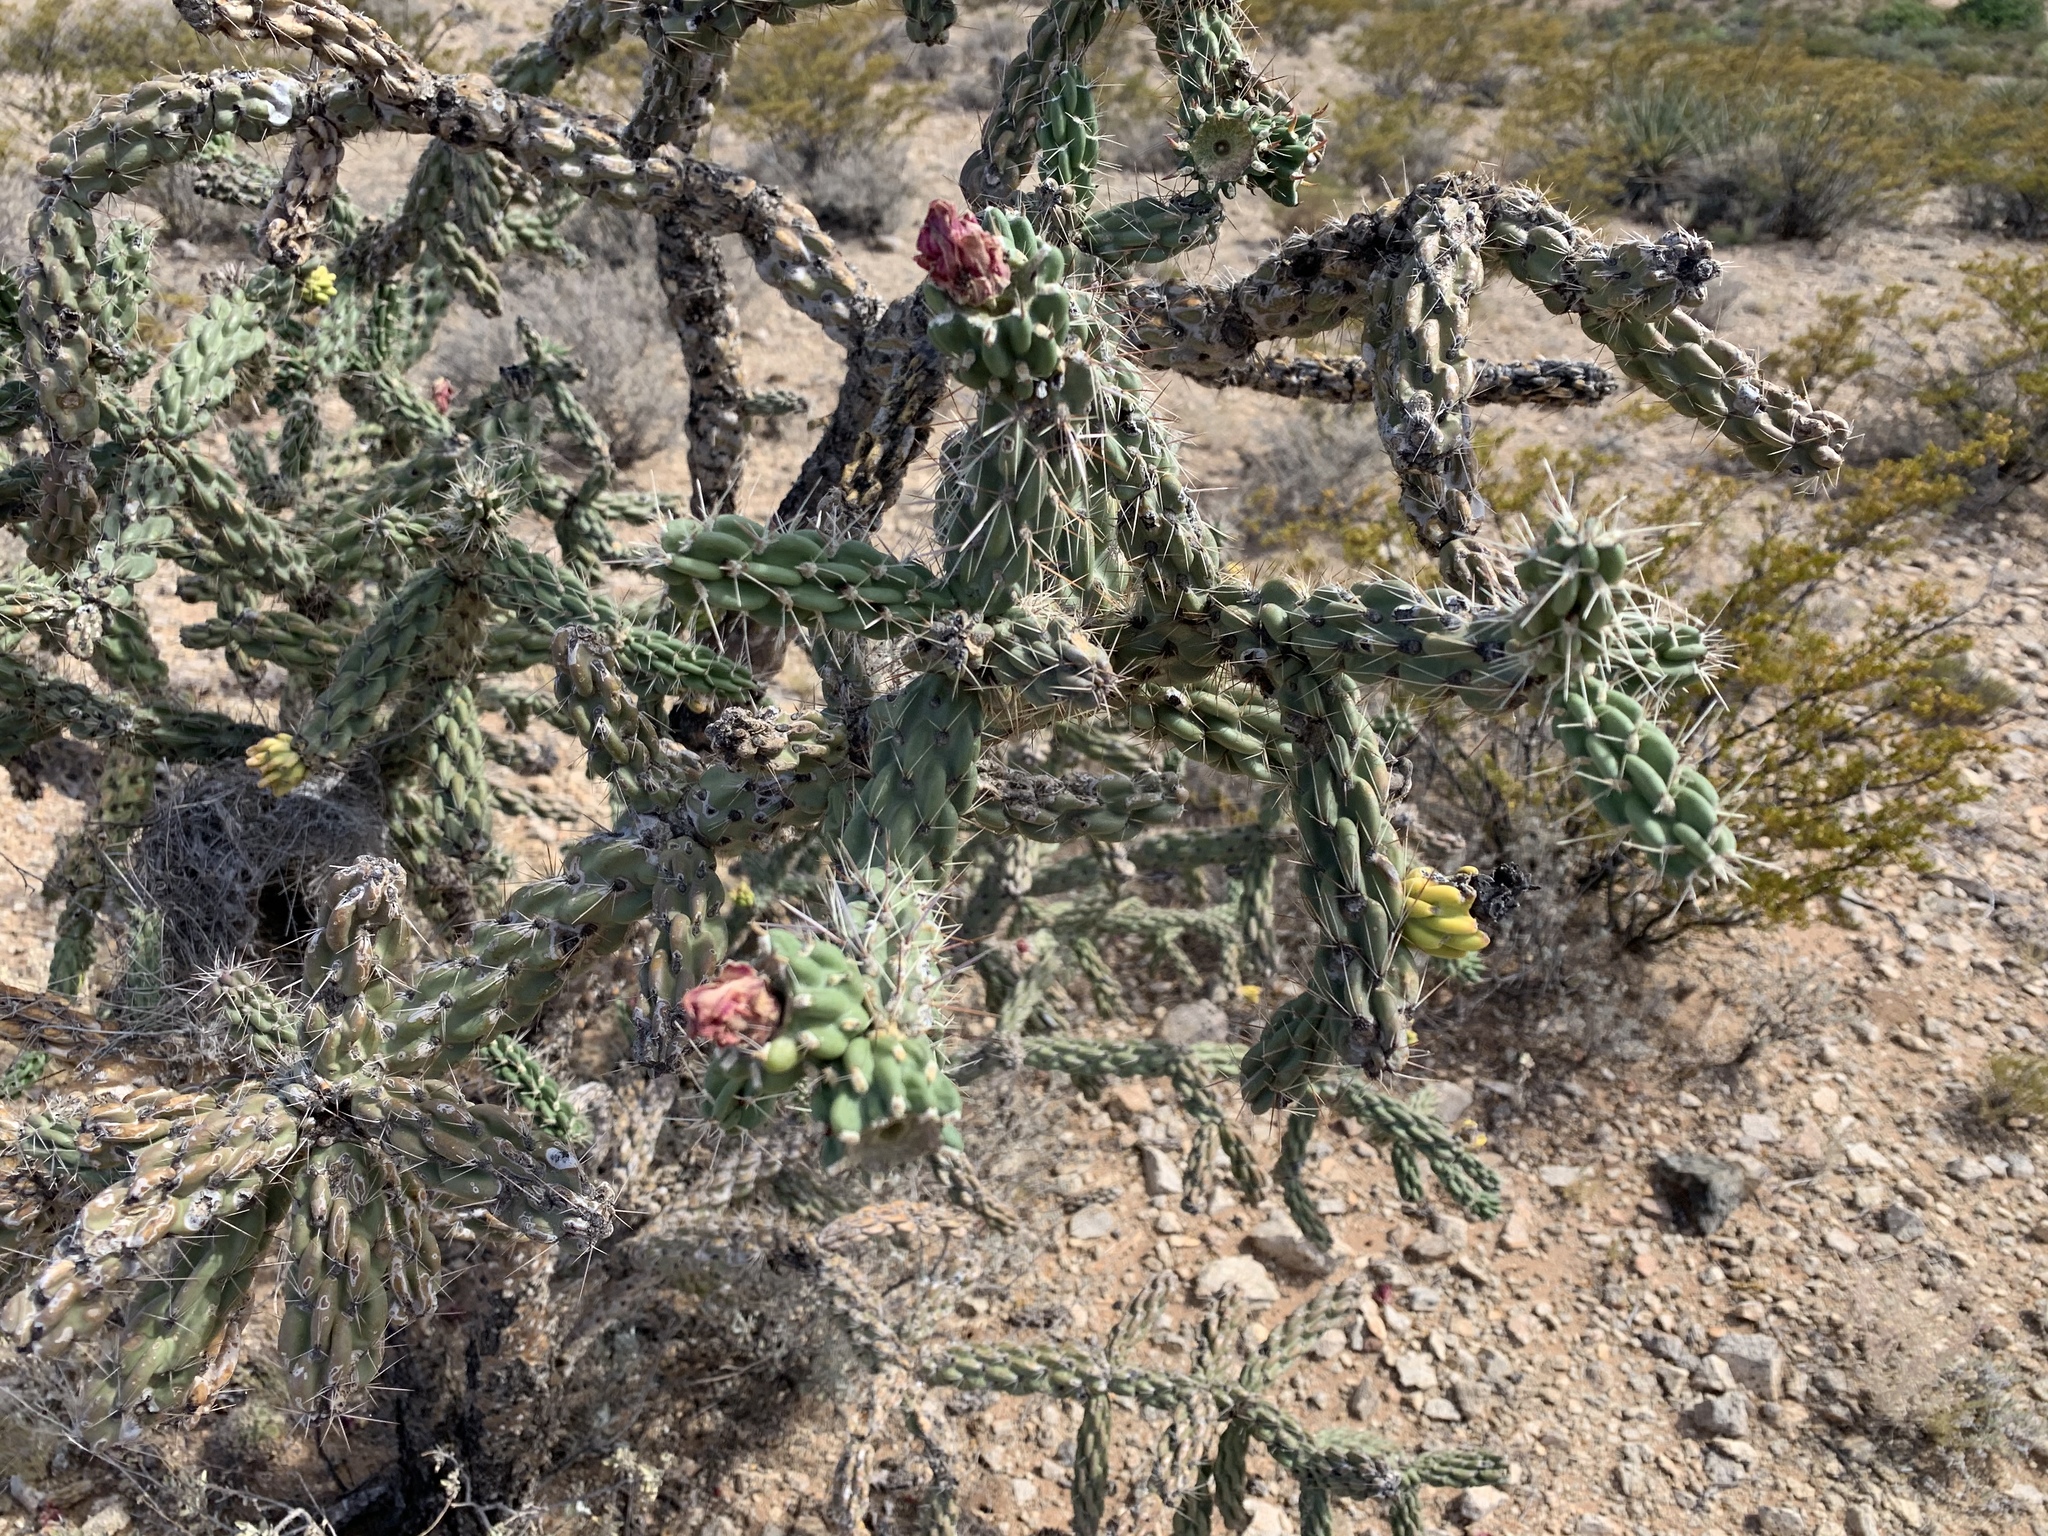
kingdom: Plantae
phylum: Tracheophyta
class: Magnoliopsida
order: Caryophyllales
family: Cactaceae
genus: Cylindropuntia
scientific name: Cylindropuntia imbricata
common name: Candelabrum cactus
